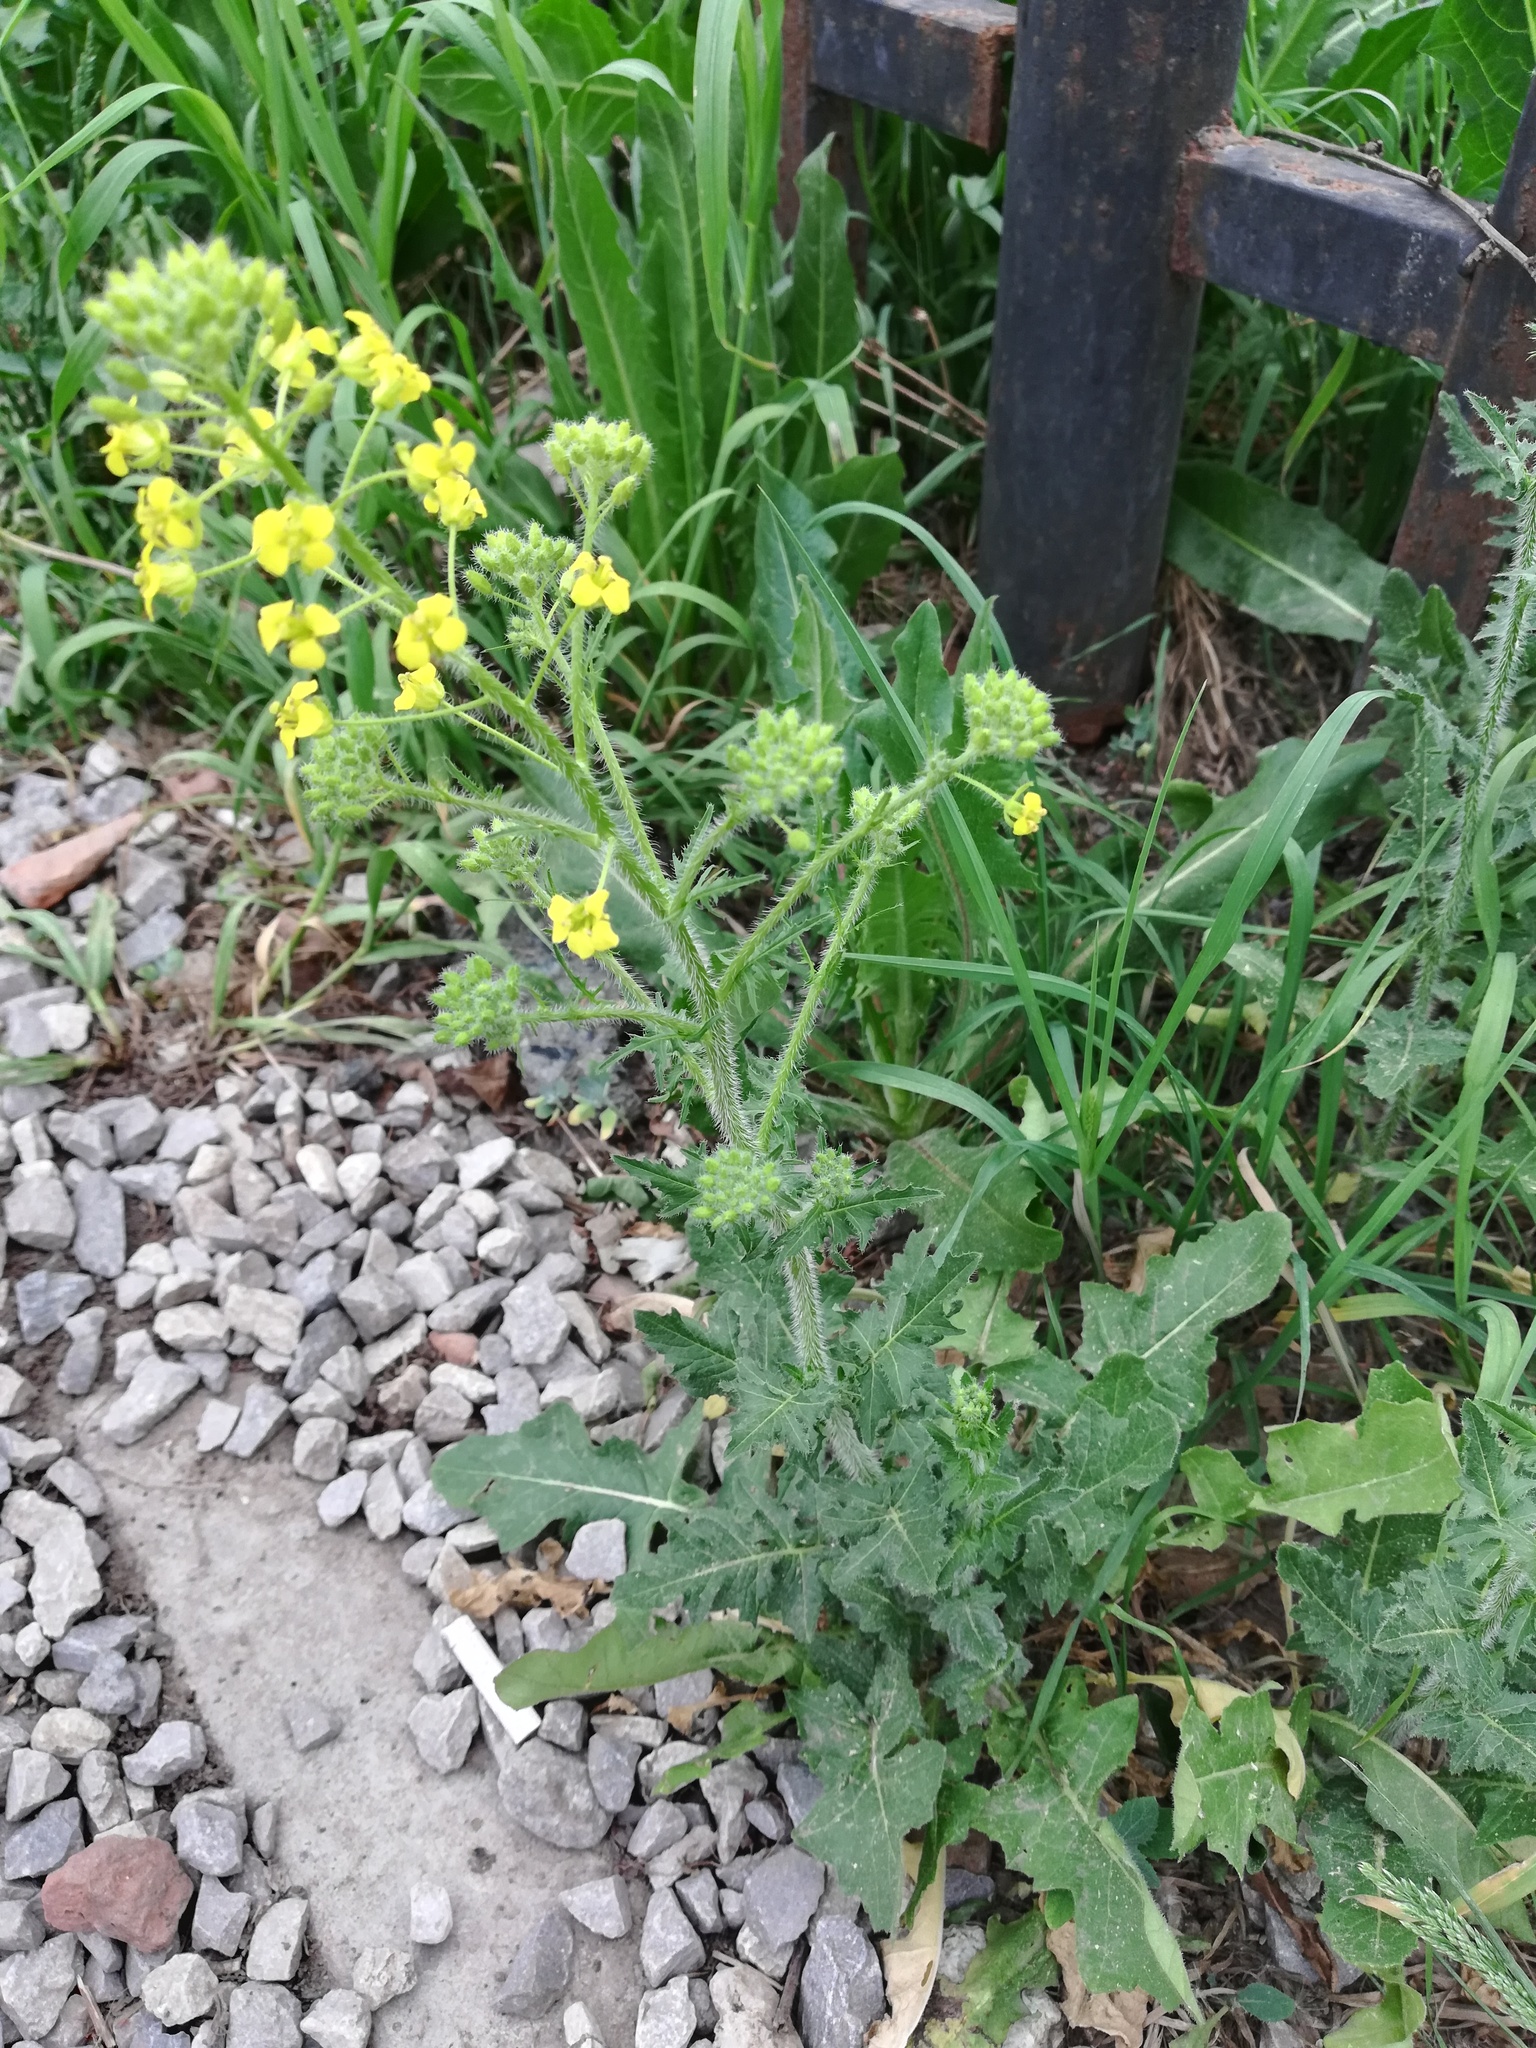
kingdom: Plantae
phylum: Tracheophyta
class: Magnoliopsida
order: Brassicales
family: Brassicaceae
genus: Sisymbrium
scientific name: Sisymbrium loeselii
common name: False london-rocket
